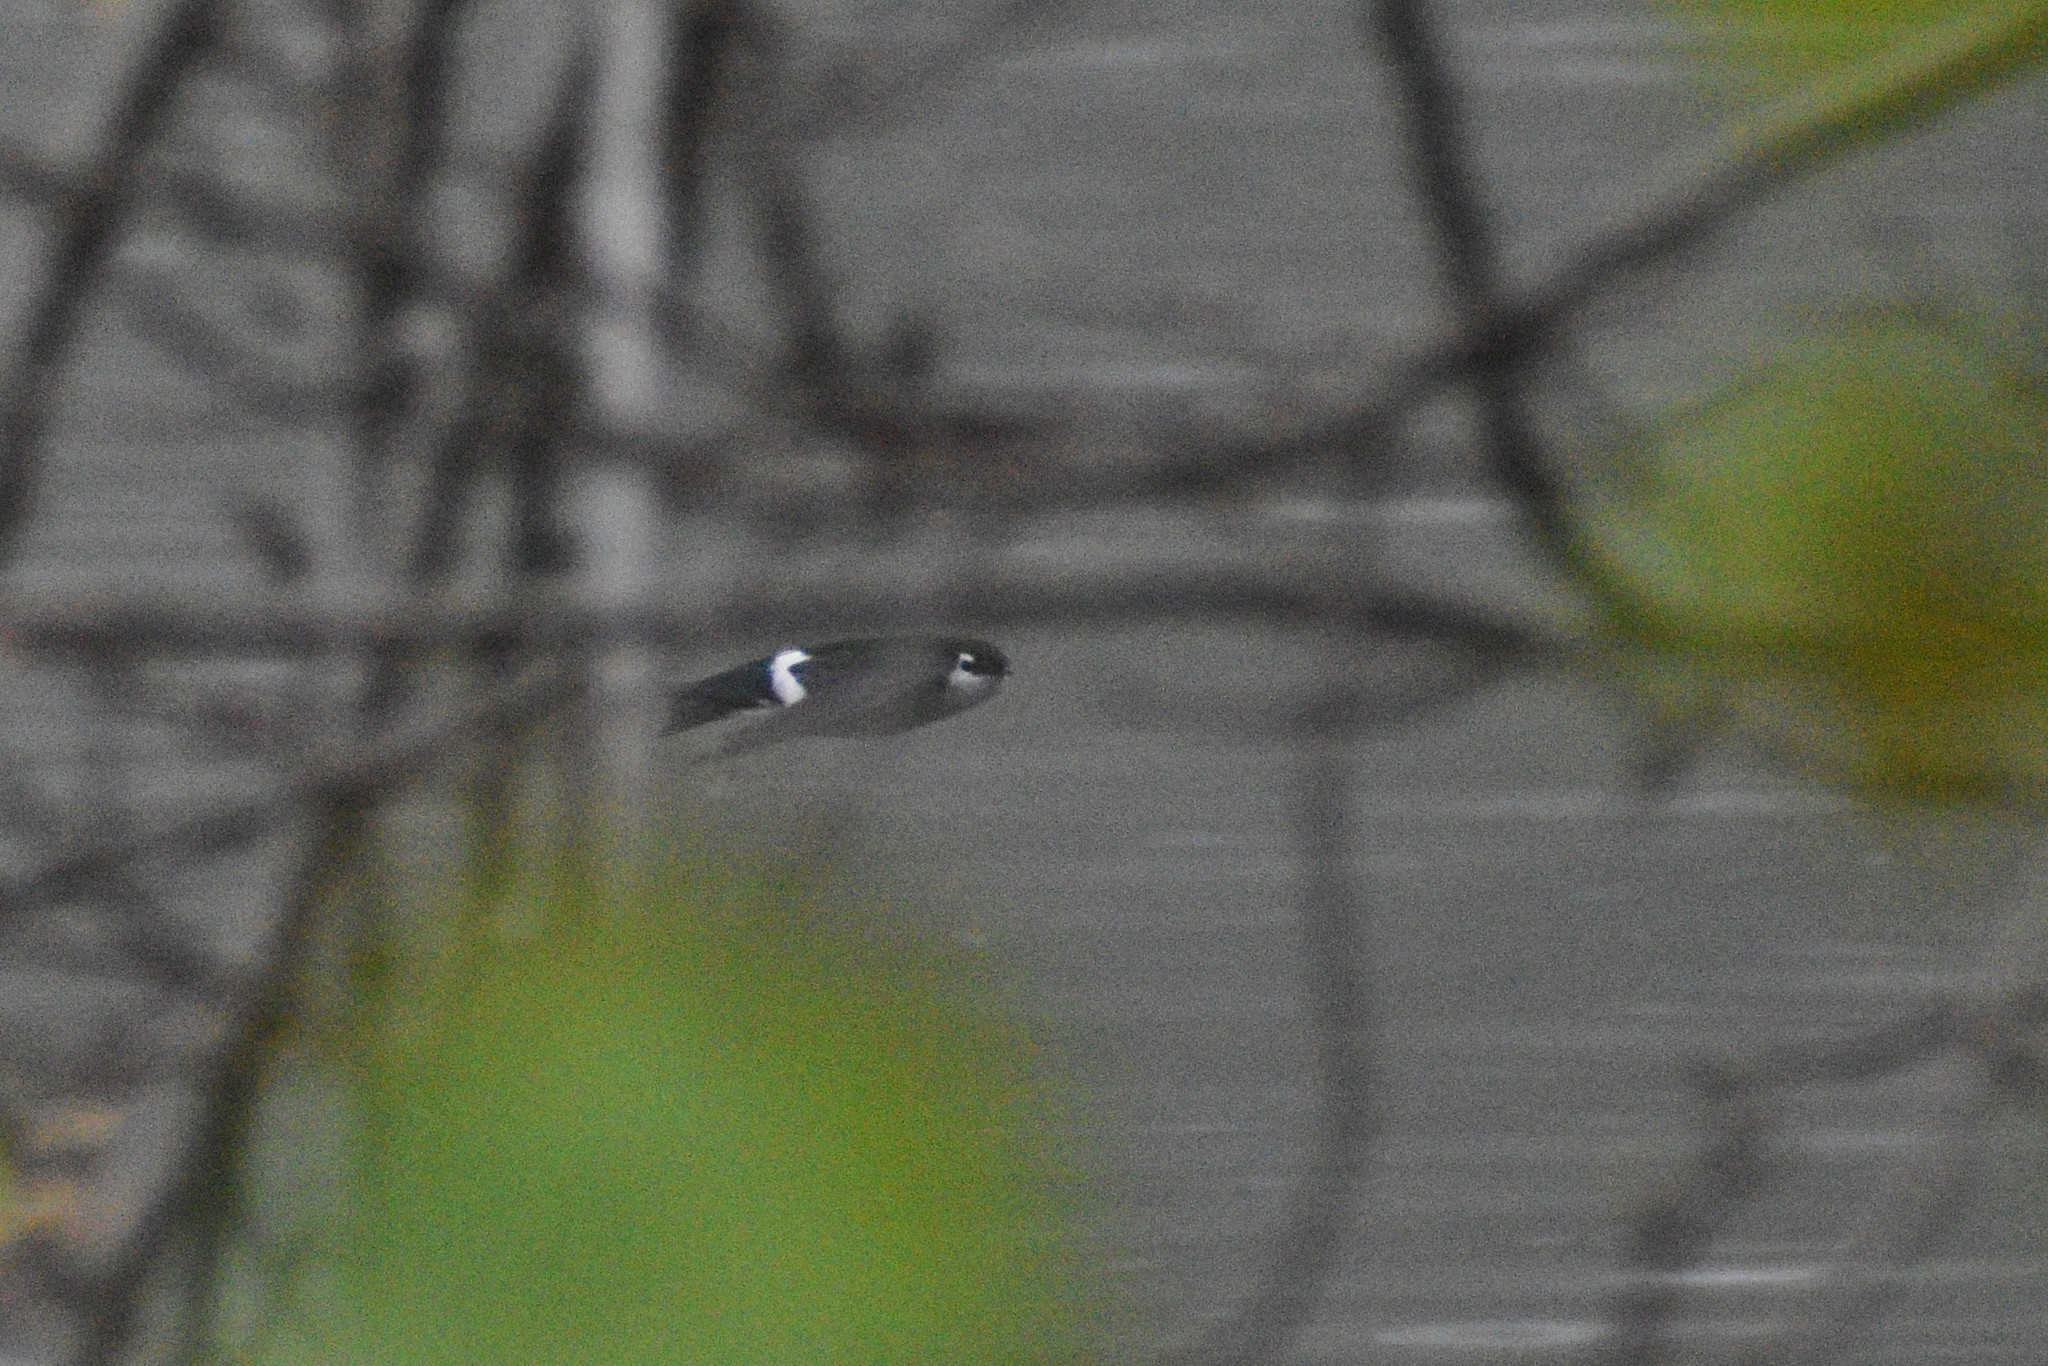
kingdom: Animalia
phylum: Chordata
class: Aves
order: Passeriformes
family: Hirundinidae
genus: Tachycineta
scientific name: Tachycineta thalassina
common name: Violet-green swallow
